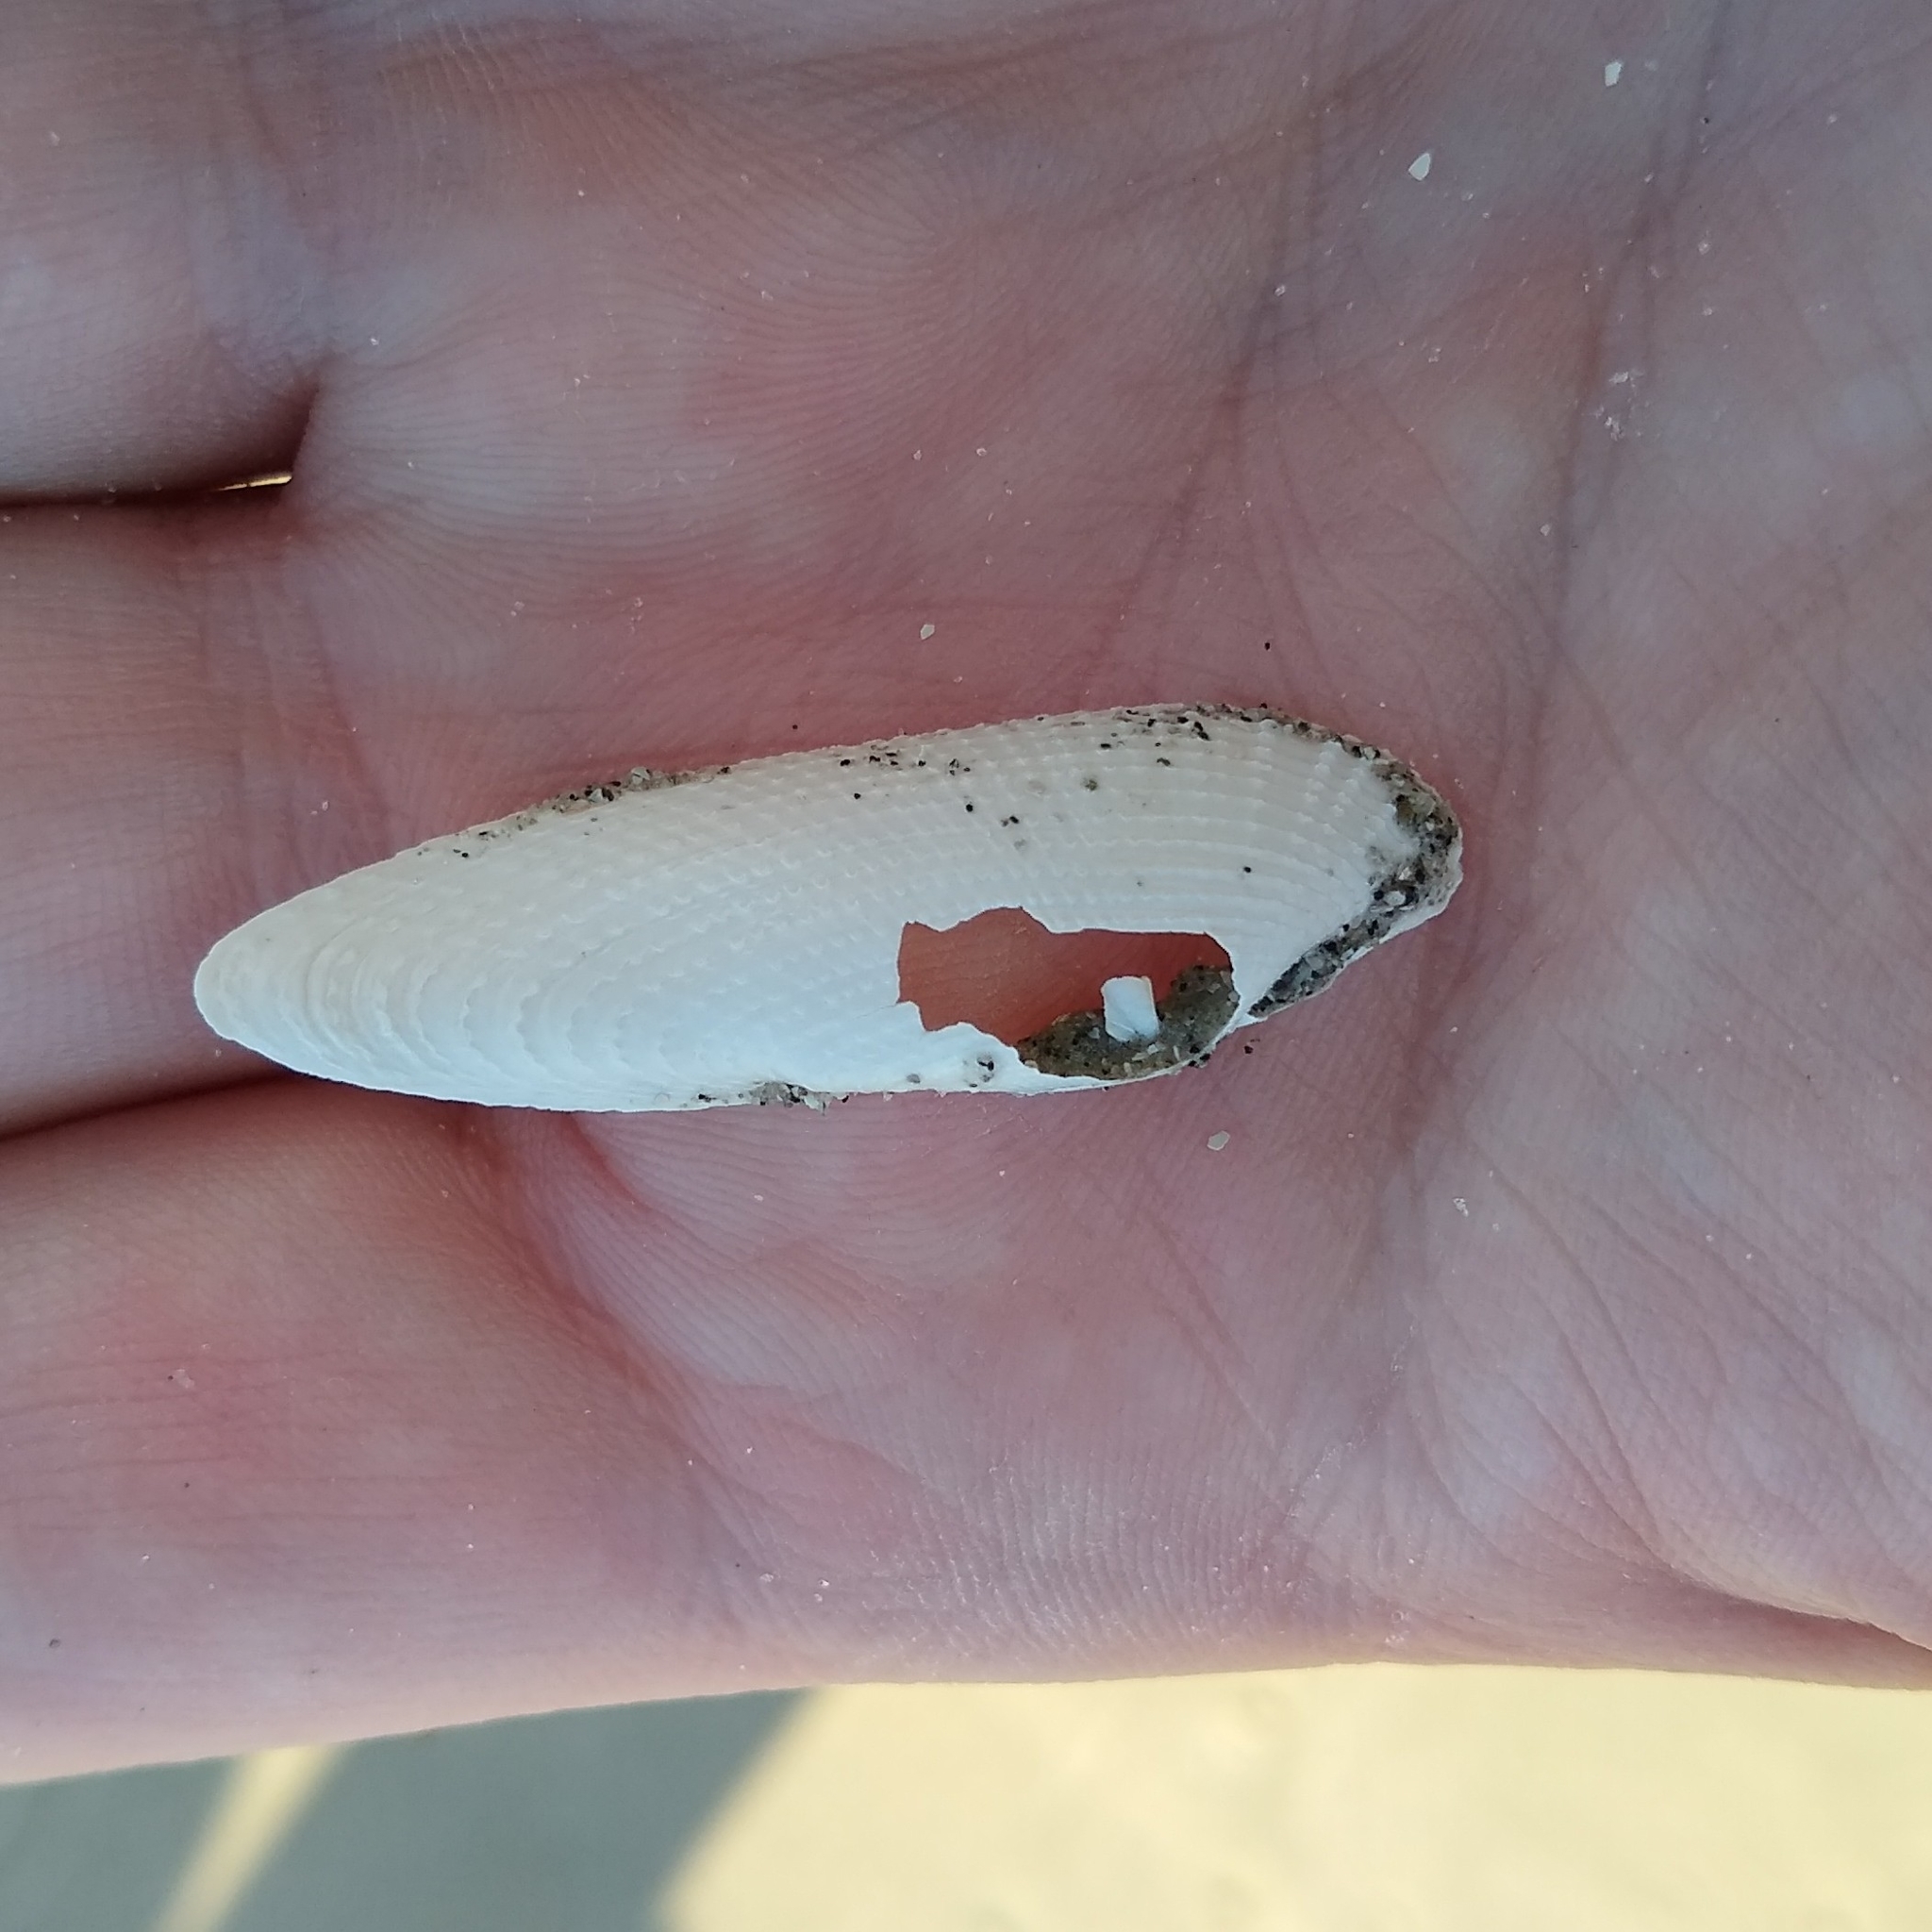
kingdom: Animalia
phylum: Mollusca
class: Bivalvia
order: Myida
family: Pholadidae
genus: Pholas
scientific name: Pholas campechiensis
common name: Campeche angel wing
